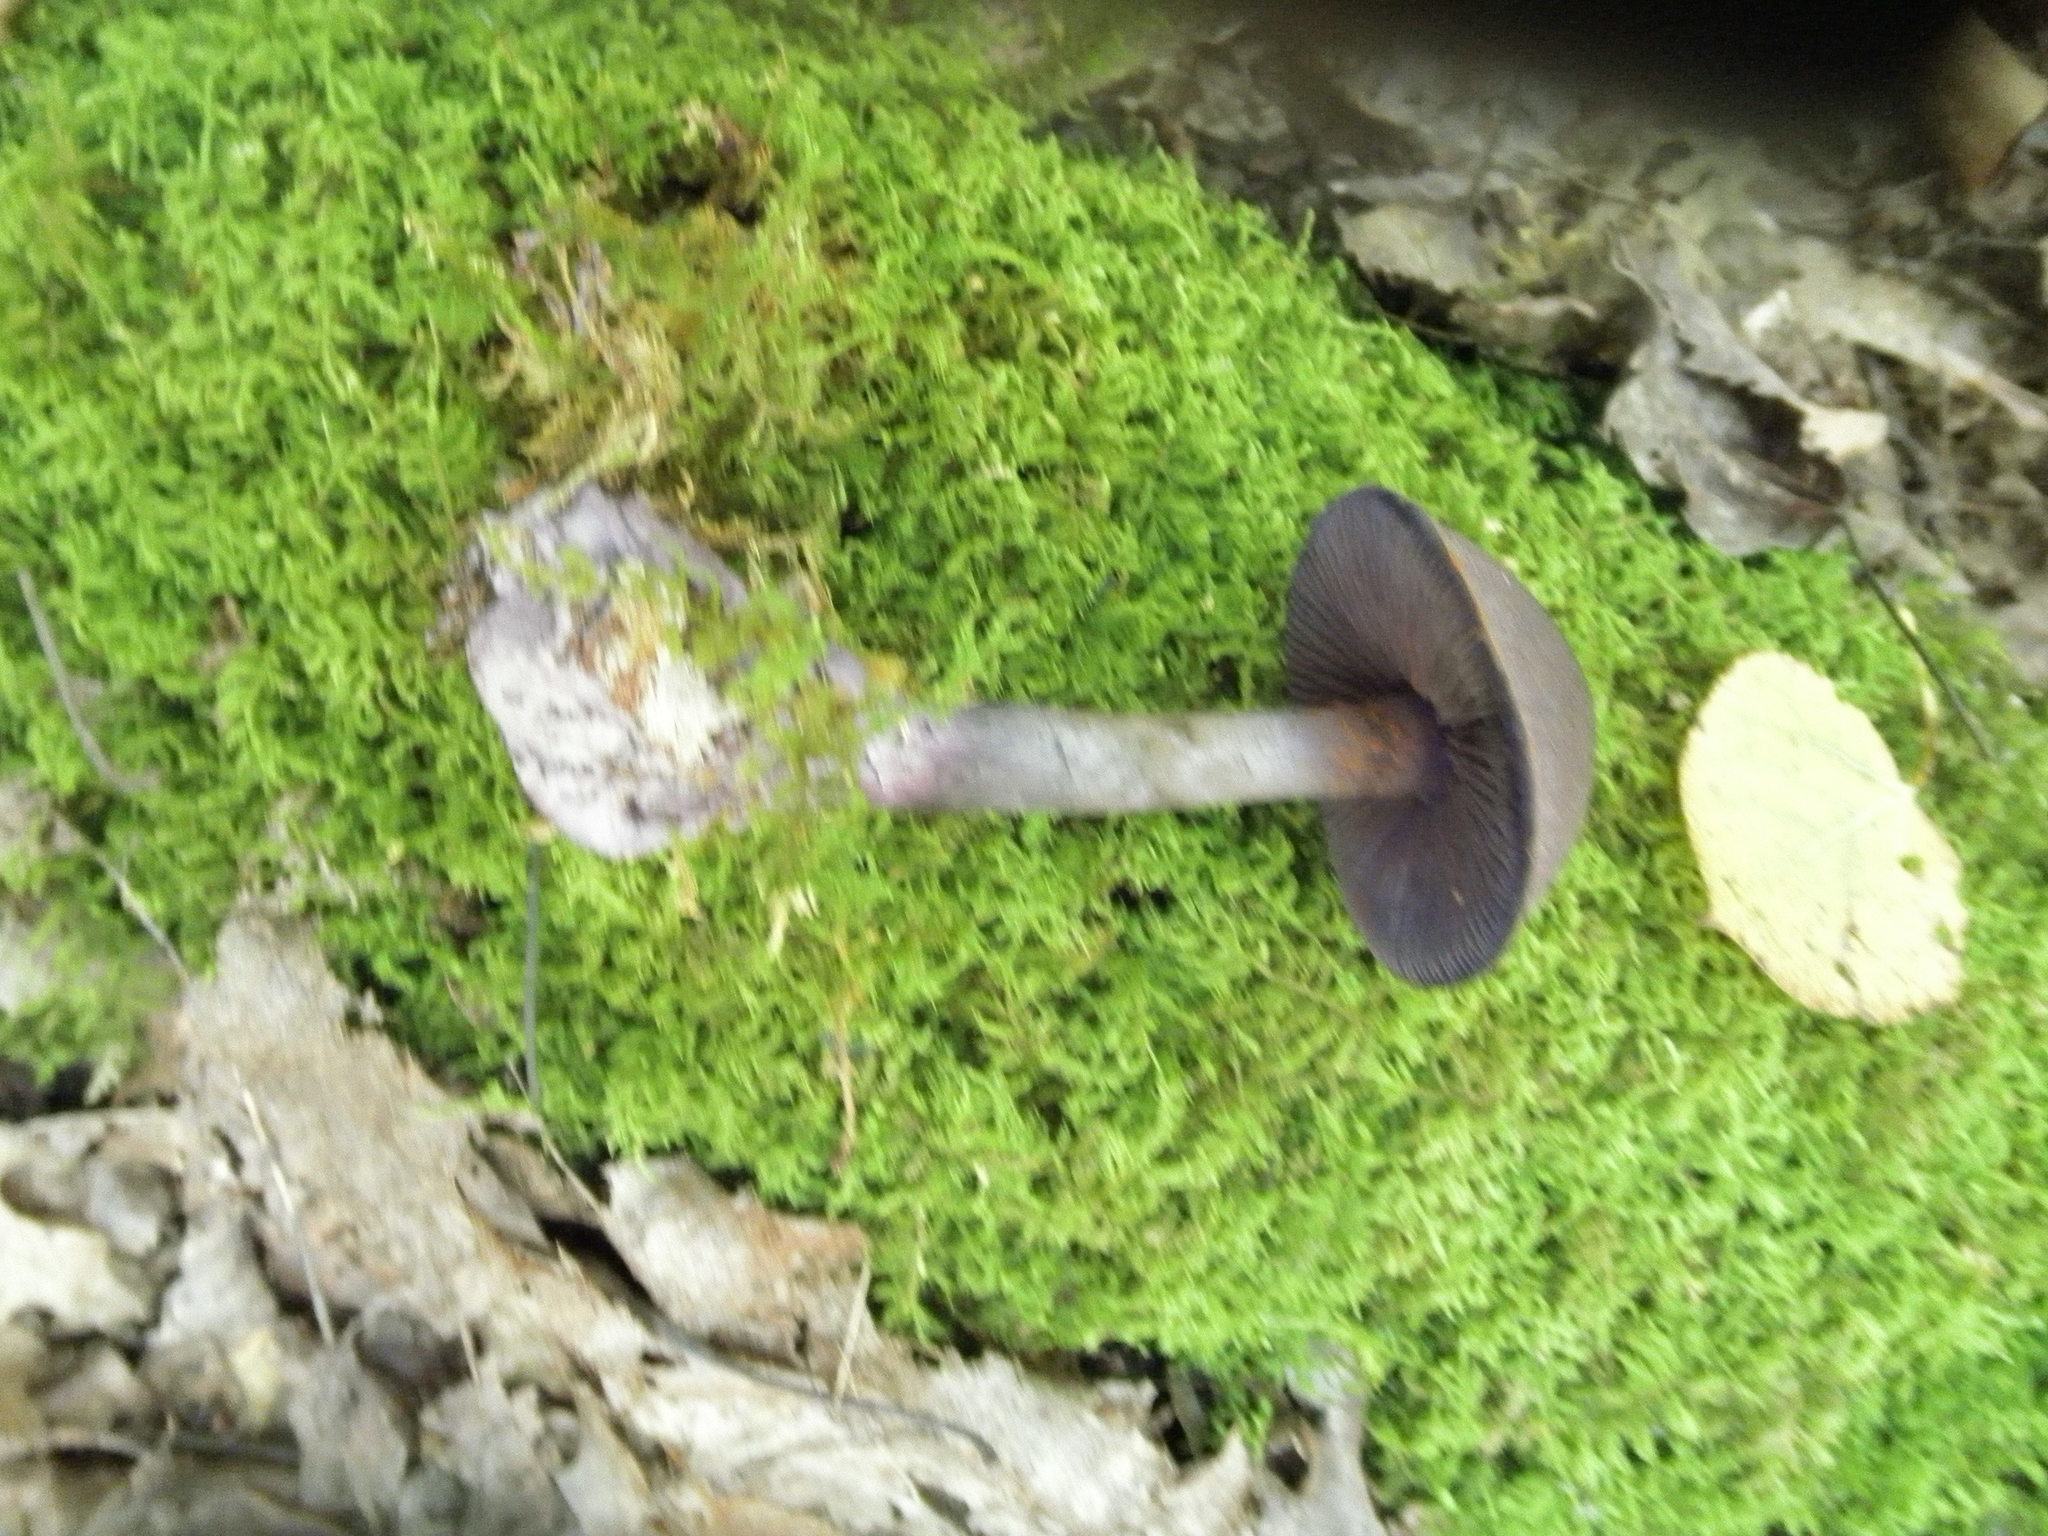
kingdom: Fungi
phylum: Basidiomycota
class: Agaricomycetes
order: Agaricales
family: Cortinariaceae
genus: Cortinarius
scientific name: Cortinarius violaceus
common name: Violet webcap
